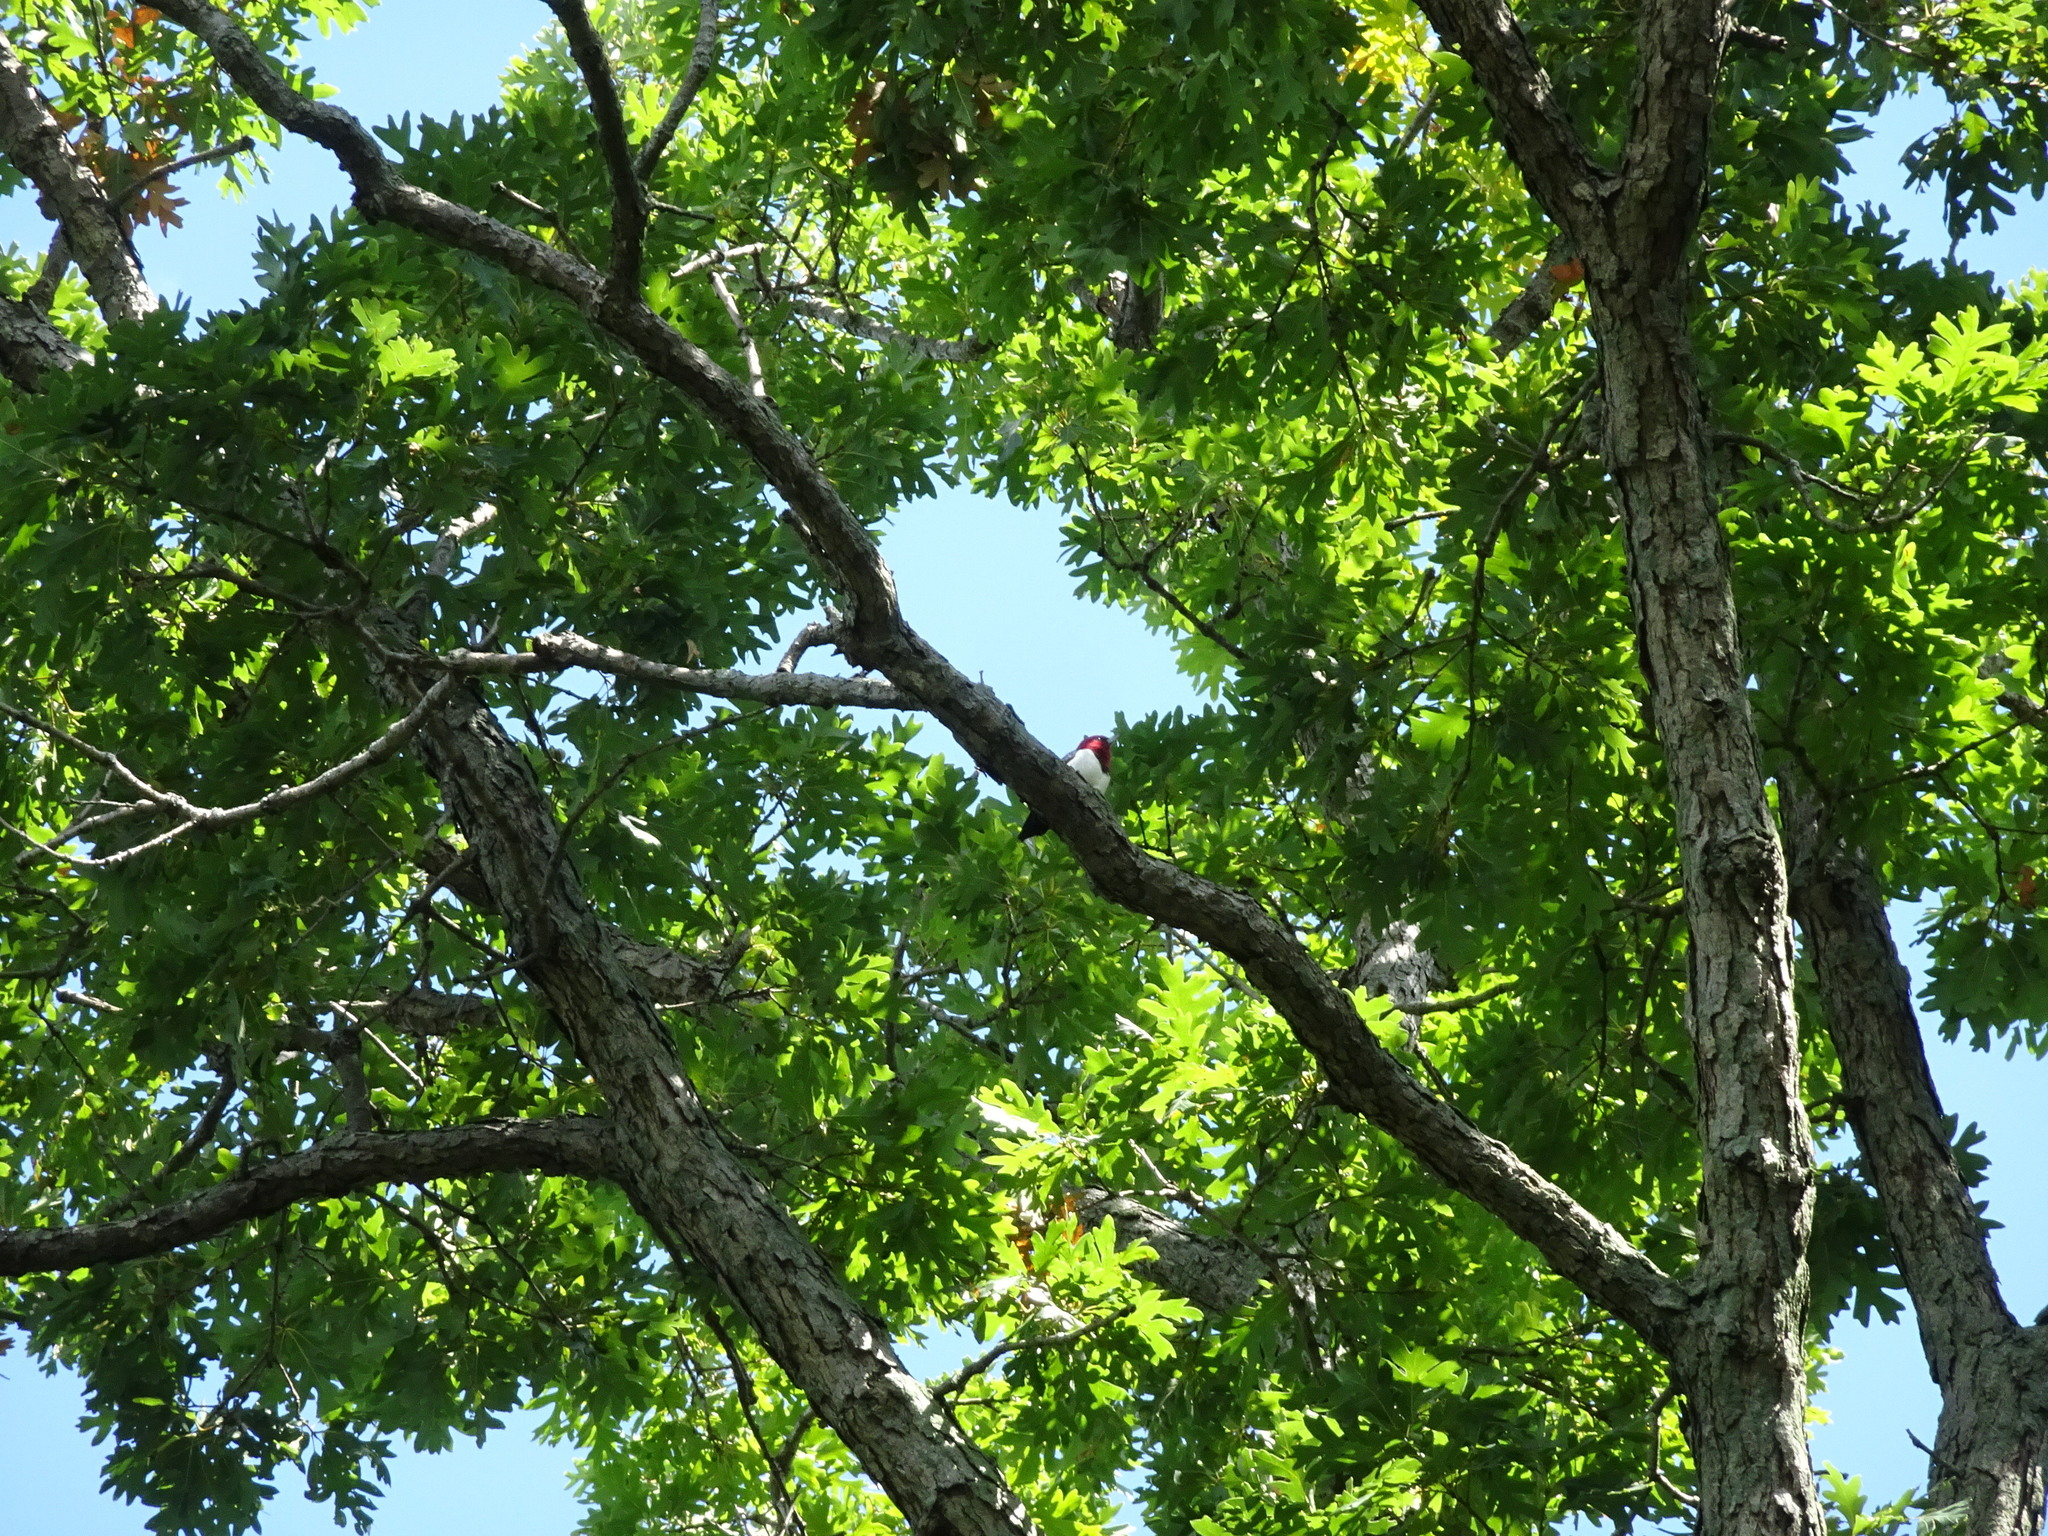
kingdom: Animalia
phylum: Chordata
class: Aves
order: Piciformes
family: Picidae
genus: Melanerpes
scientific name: Melanerpes erythrocephalus
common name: Red-headed woodpecker
